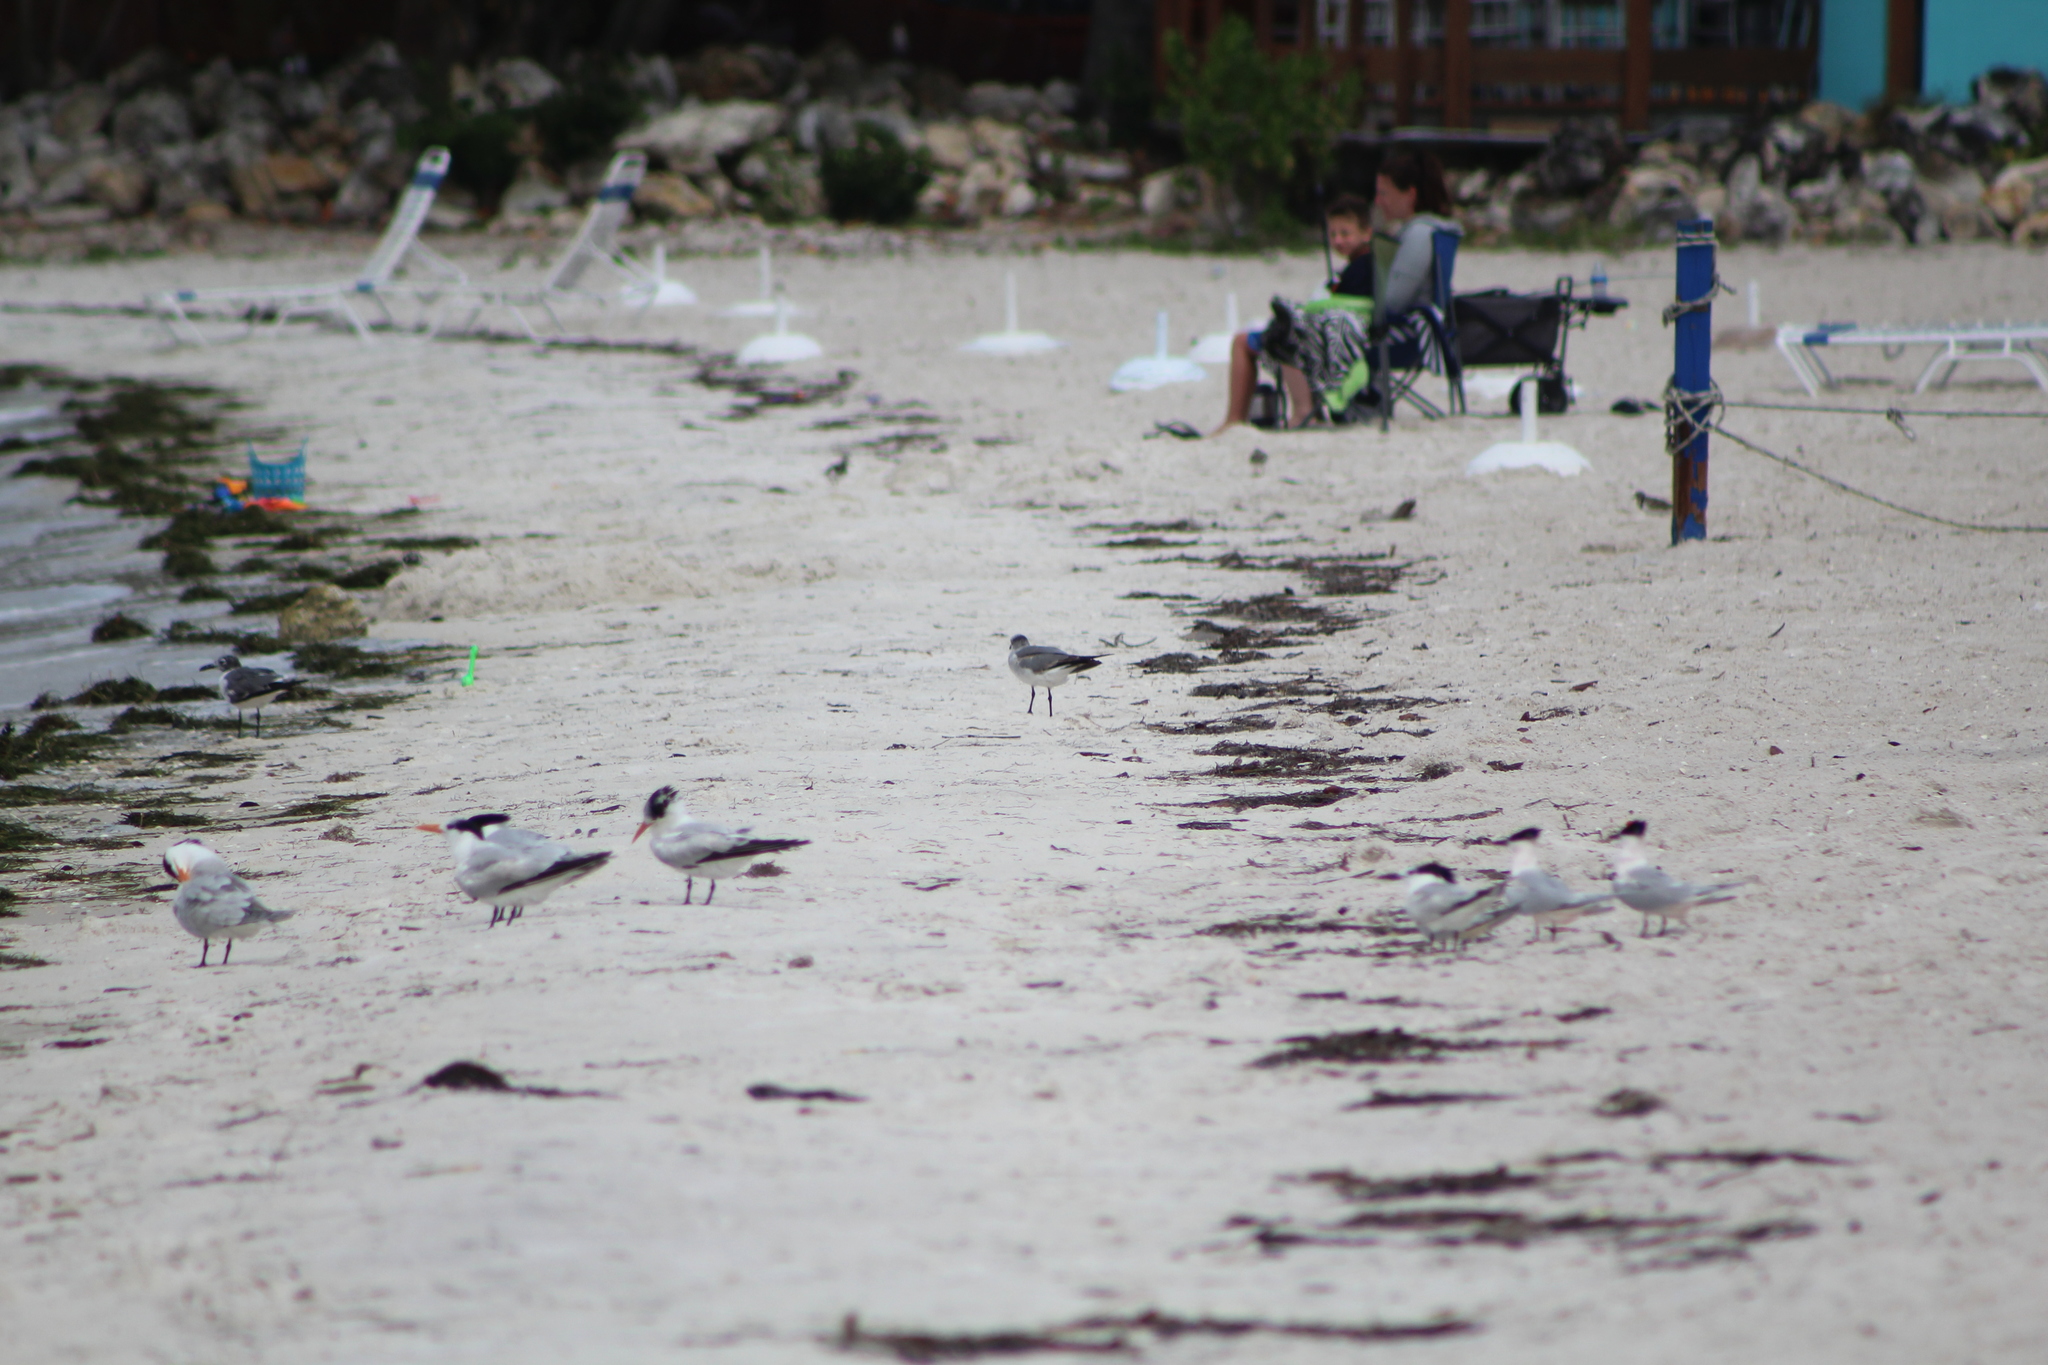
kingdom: Animalia
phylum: Chordata
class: Aves
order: Charadriiformes
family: Laridae
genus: Thalasseus
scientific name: Thalasseus sandvicensis
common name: Sandwich tern
